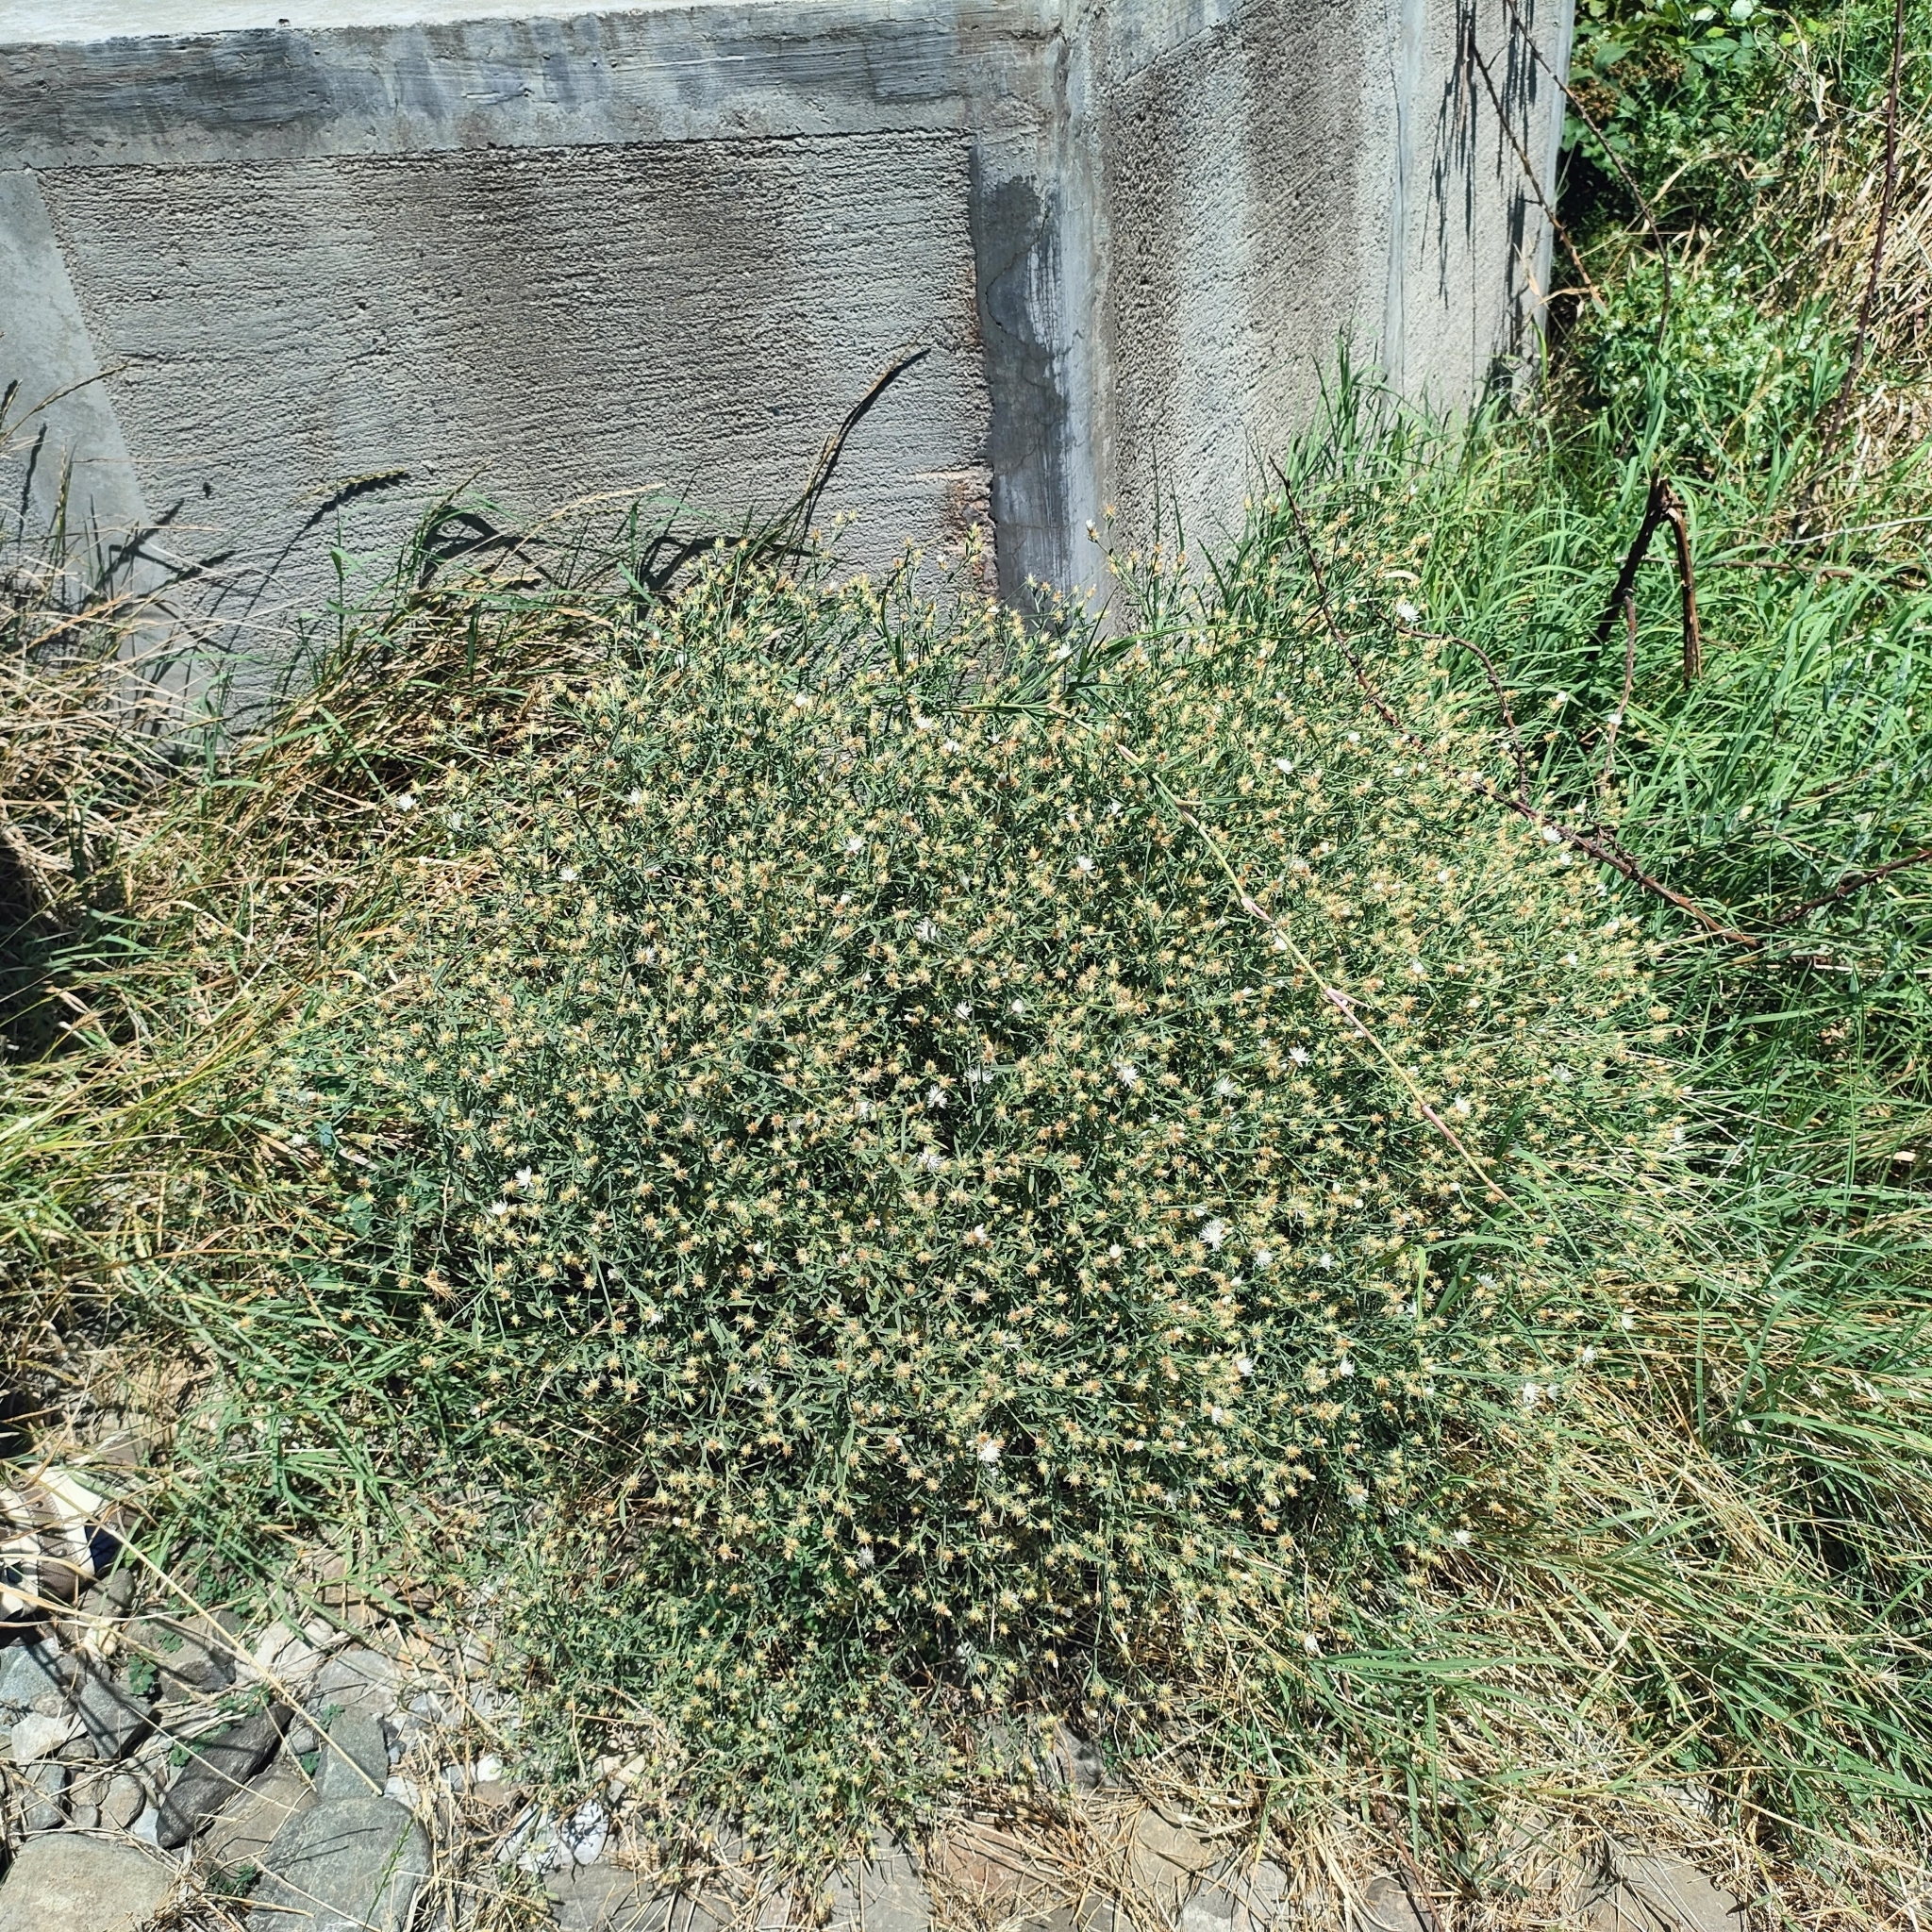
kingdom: Plantae
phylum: Tracheophyta
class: Magnoliopsida
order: Asterales
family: Asteraceae
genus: Centaurea
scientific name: Centaurea diffusa
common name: Diffuse knapweed
